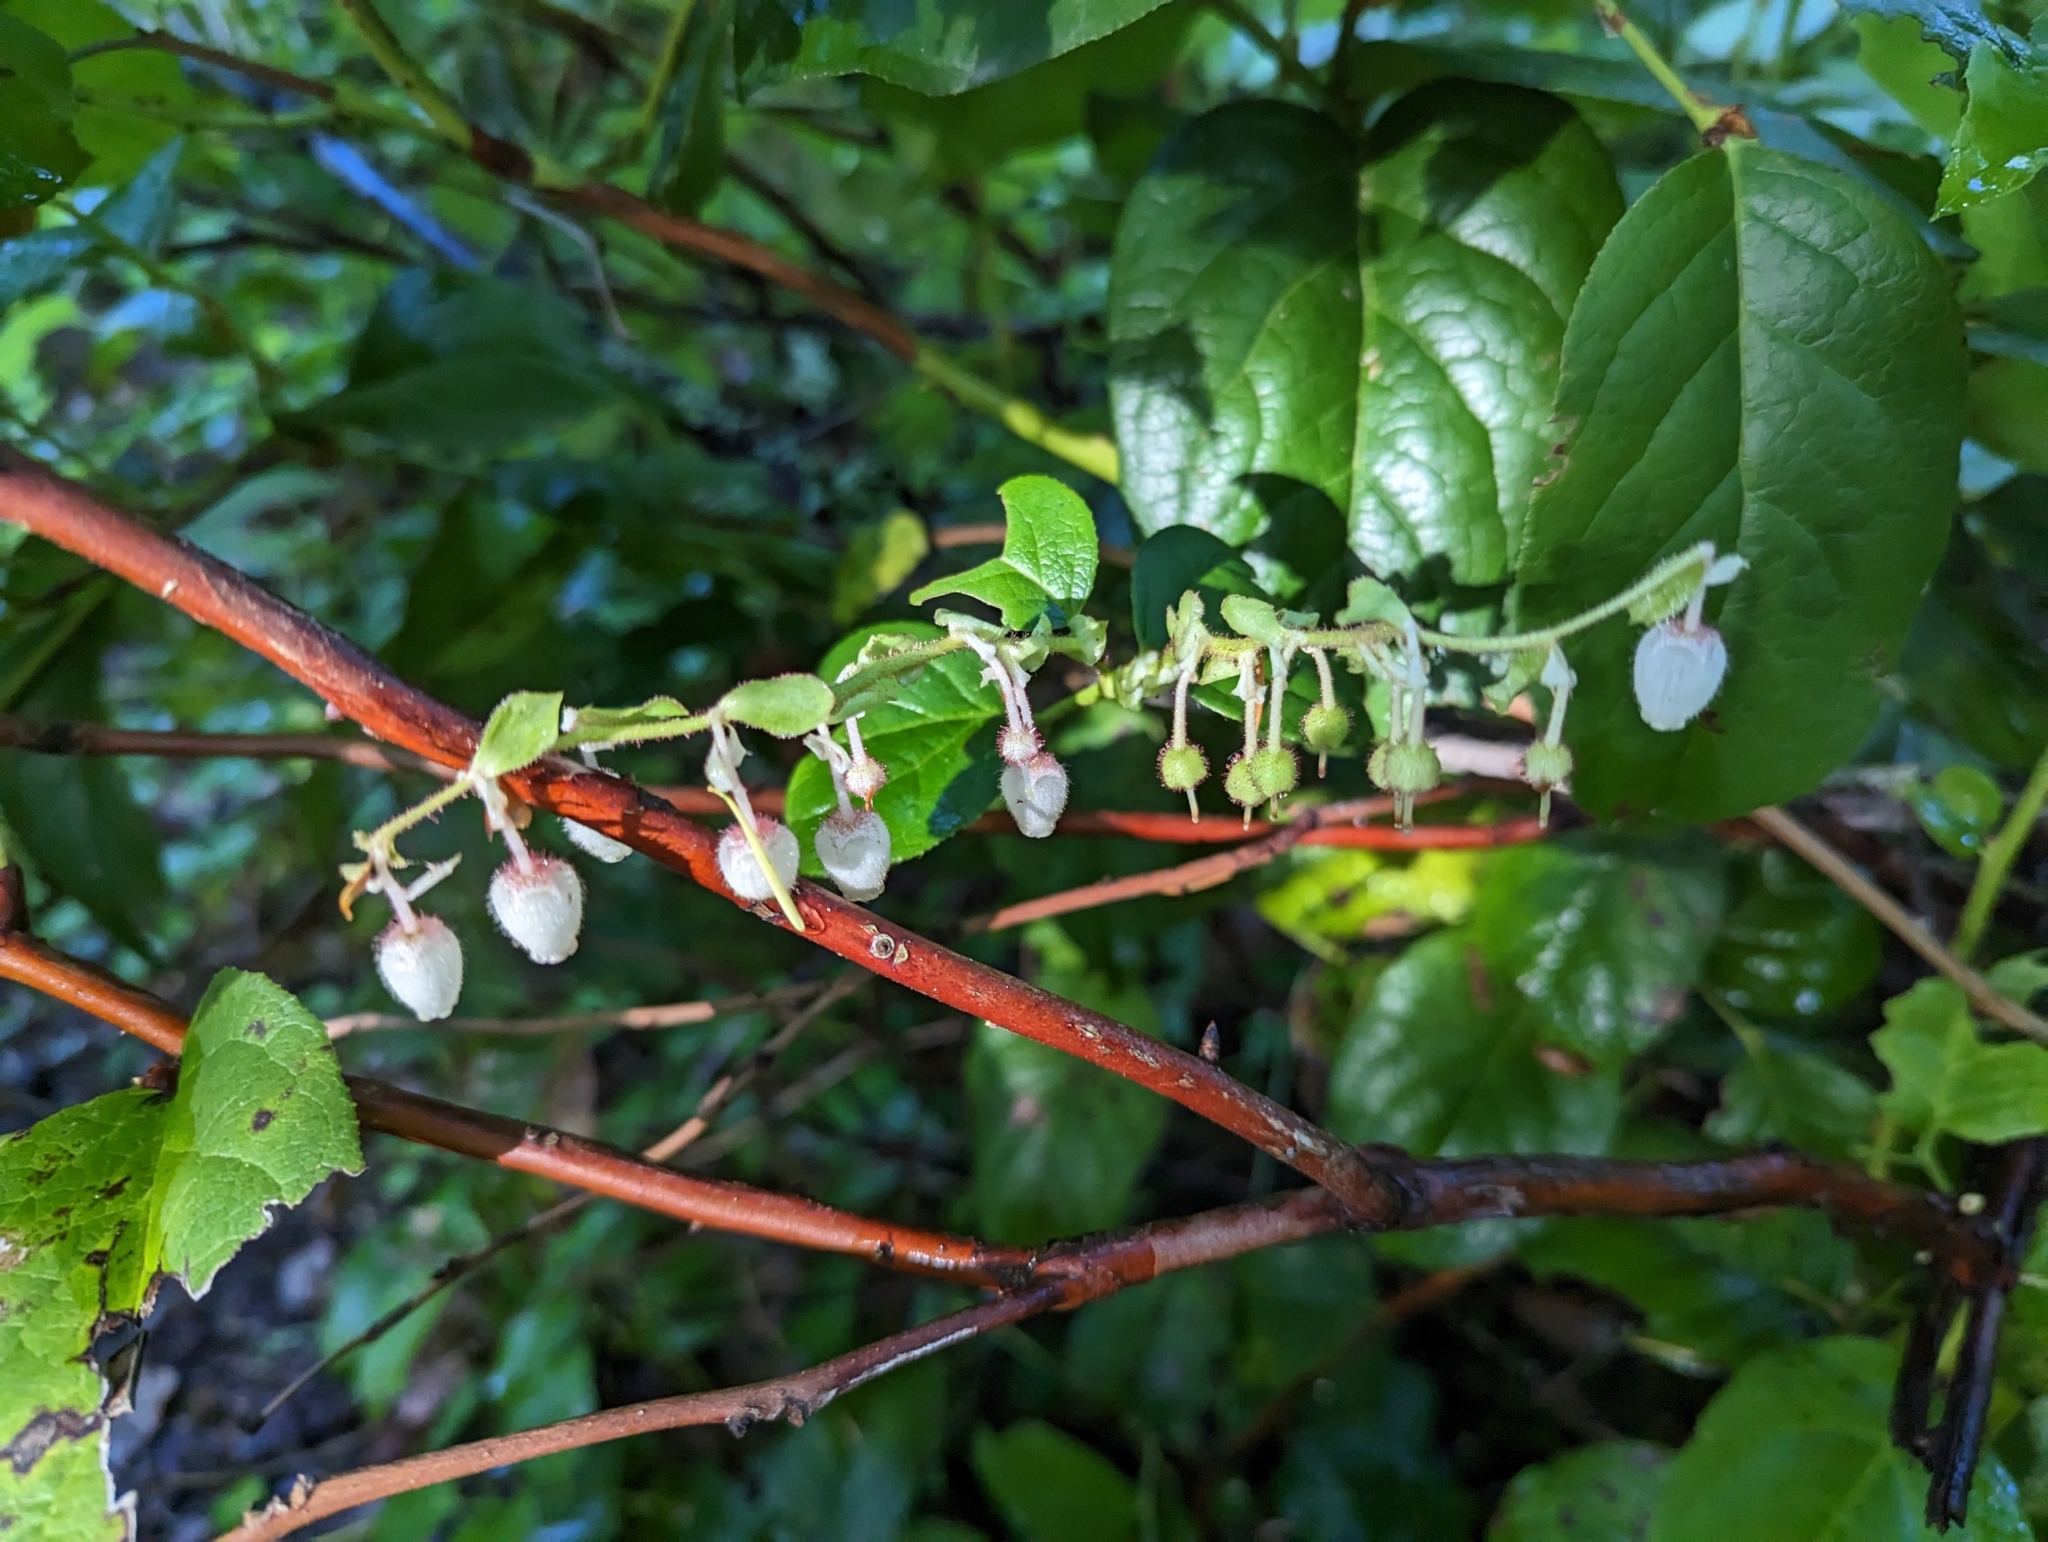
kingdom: Plantae
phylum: Tracheophyta
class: Magnoliopsida
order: Ericales
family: Ericaceae
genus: Gaultheria
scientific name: Gaultheria shallon
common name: Shallon
